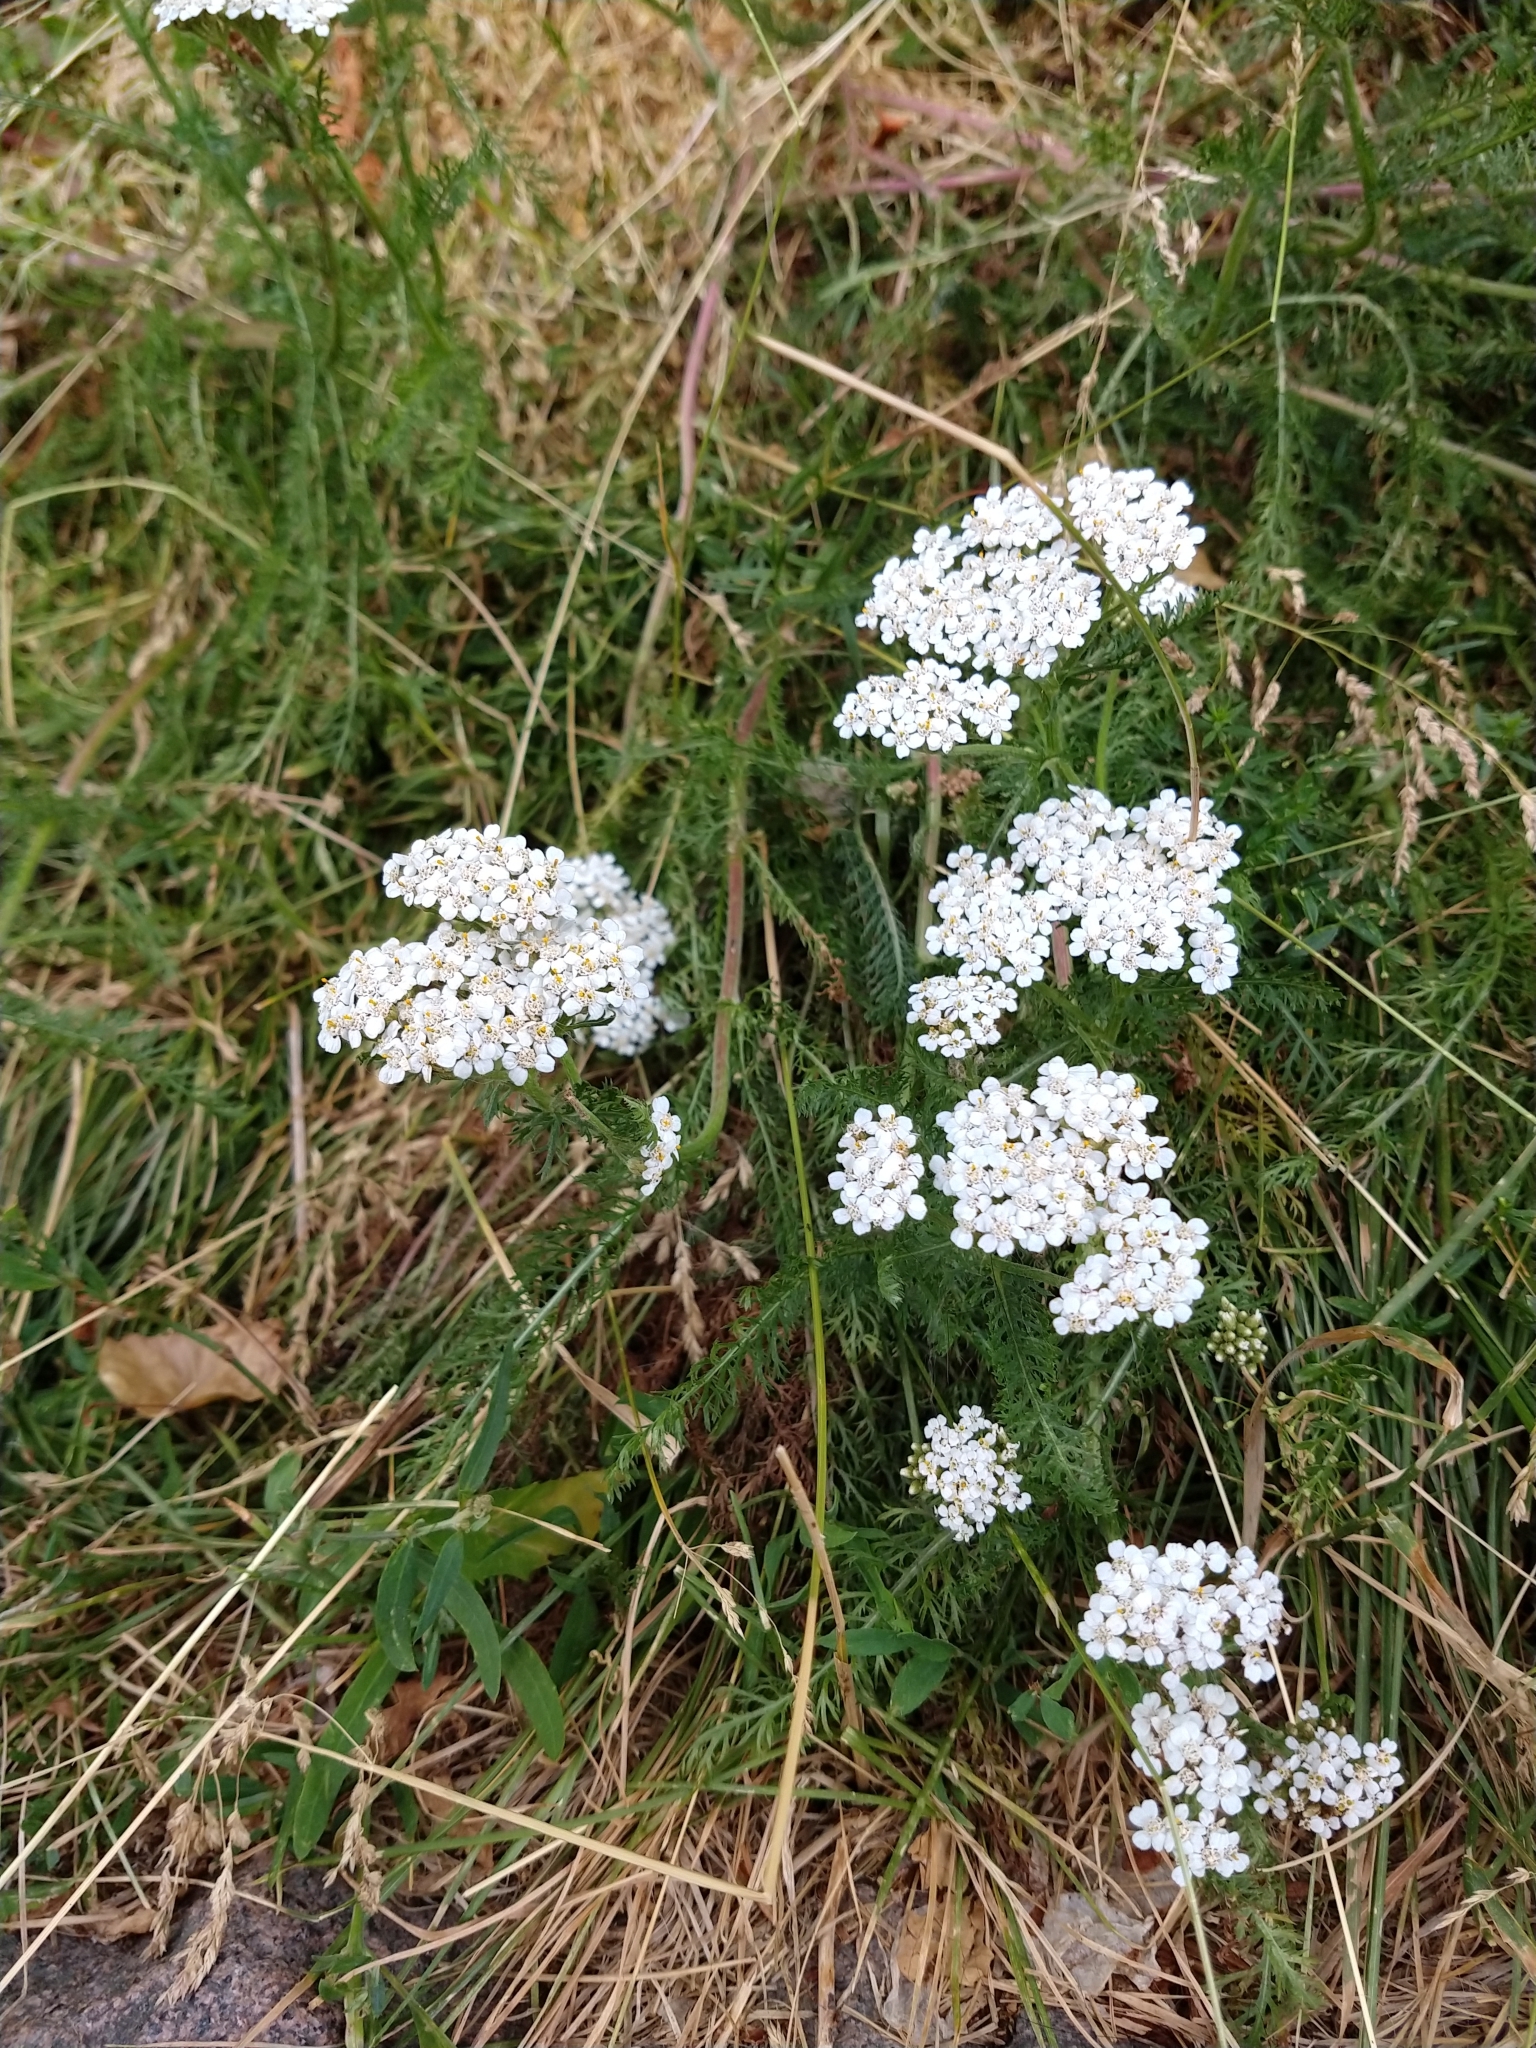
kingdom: Plantae
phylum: Tracheophyta
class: Magnoliopsida
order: Asterales
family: Asteraceae
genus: Achillea
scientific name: Achillea millefolium
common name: Yarrow
